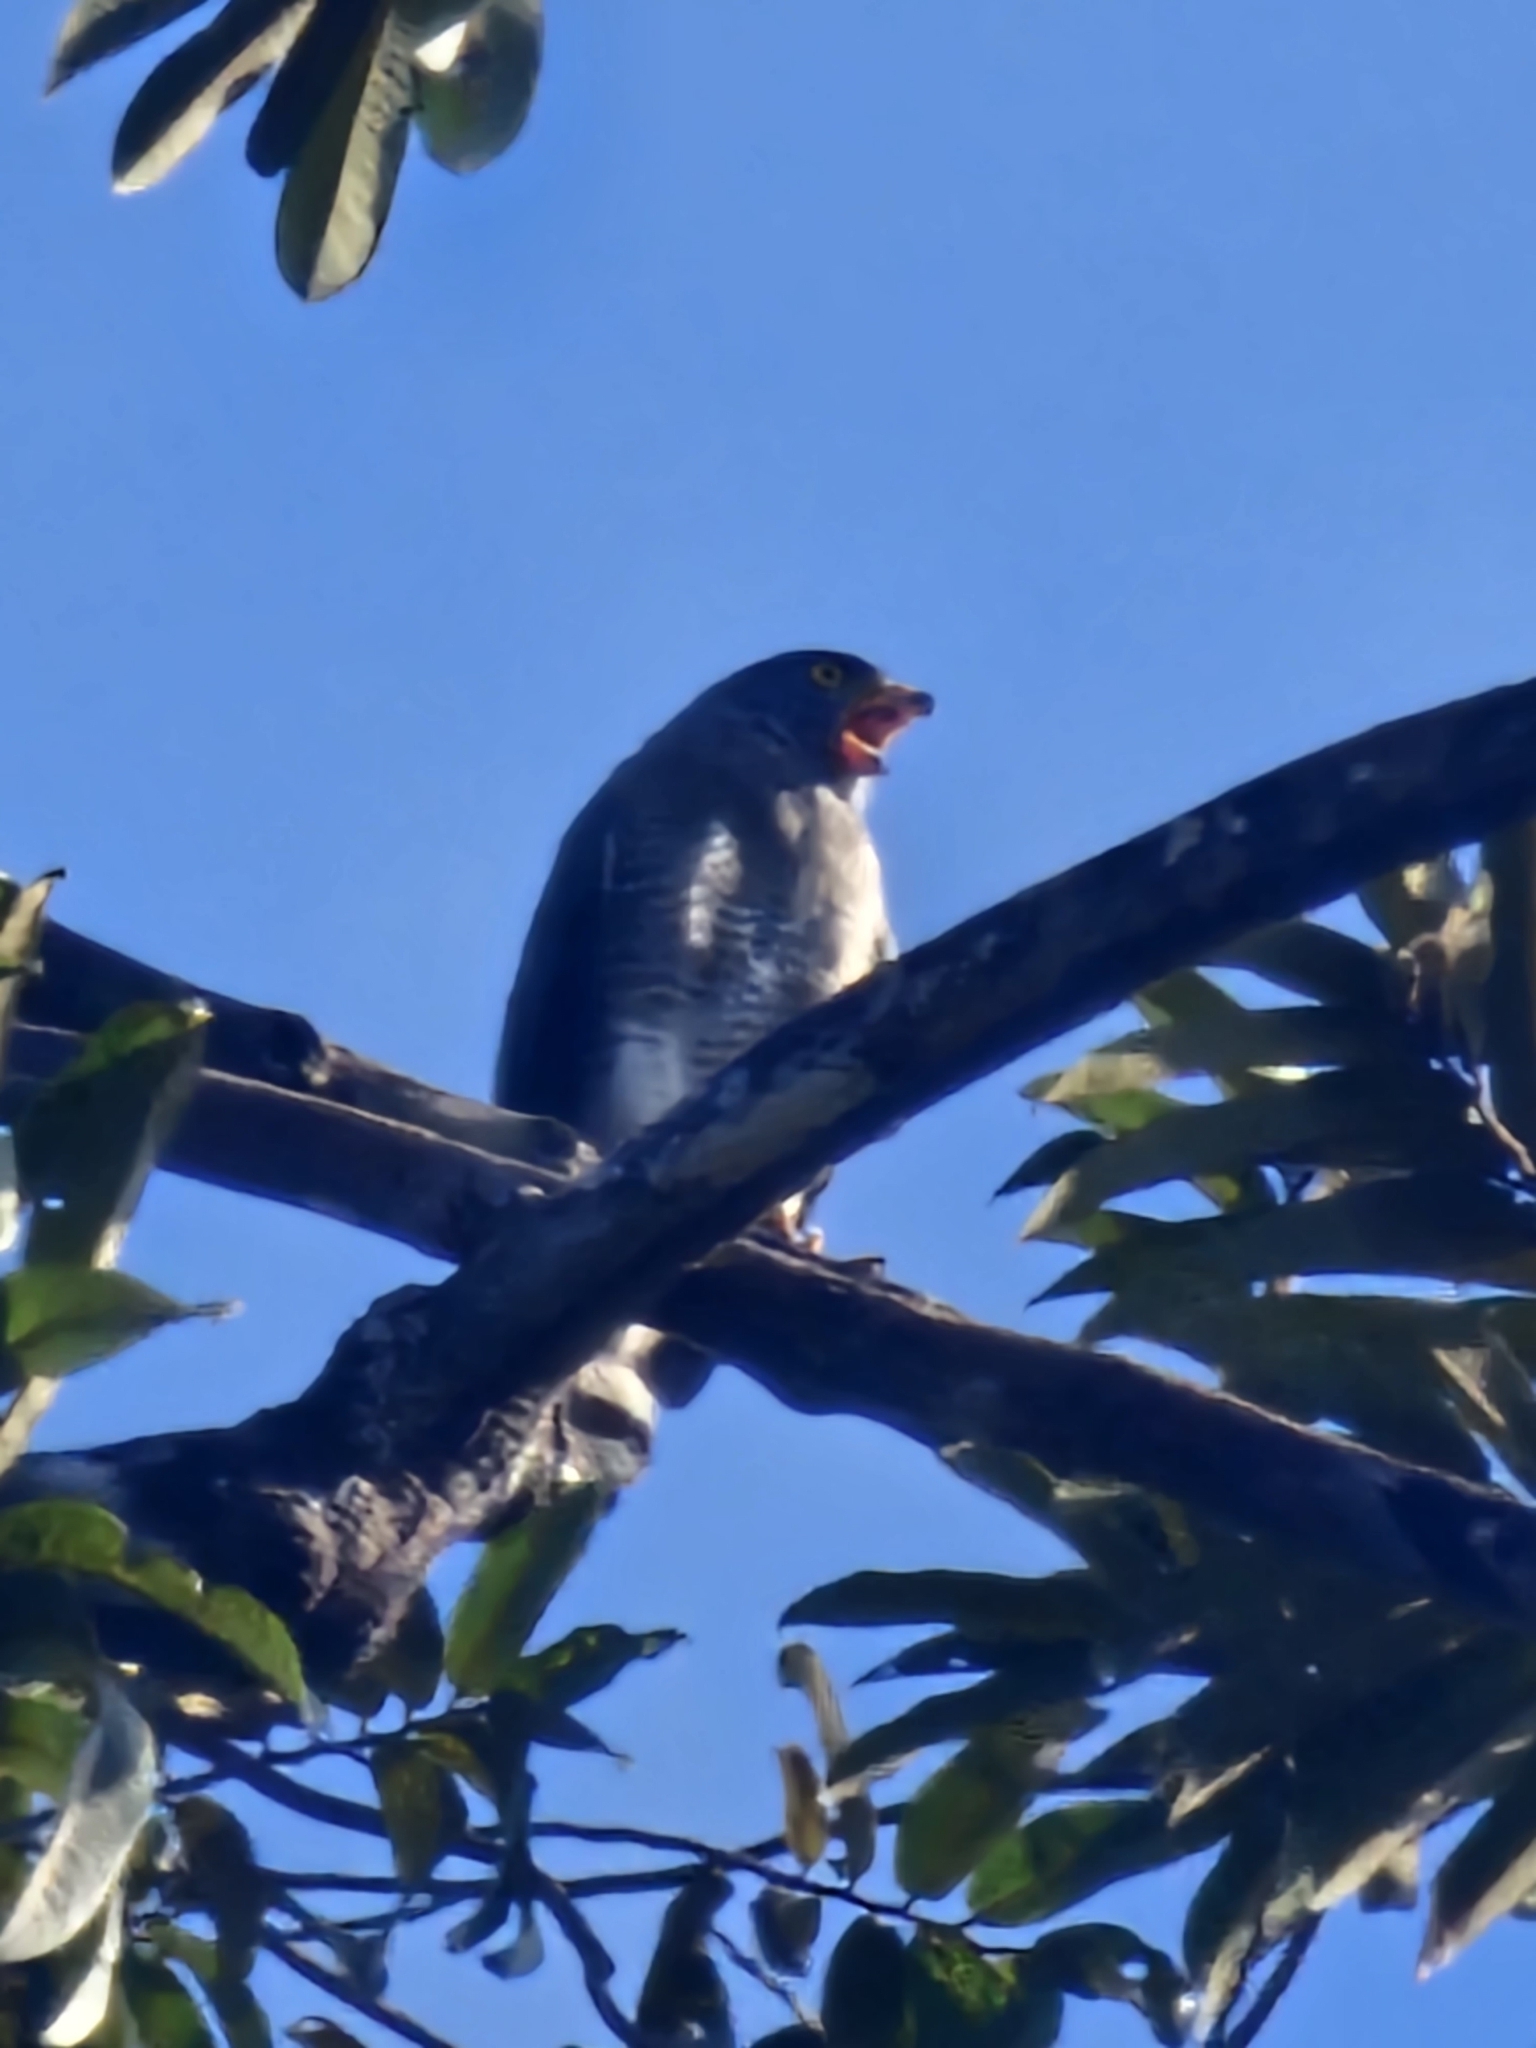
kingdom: Animalia
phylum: Chordata
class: Aves
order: Accipitriformes
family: Accipitridae
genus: Rupornis
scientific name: Rupornis magnirostris
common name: Roadside hawk
